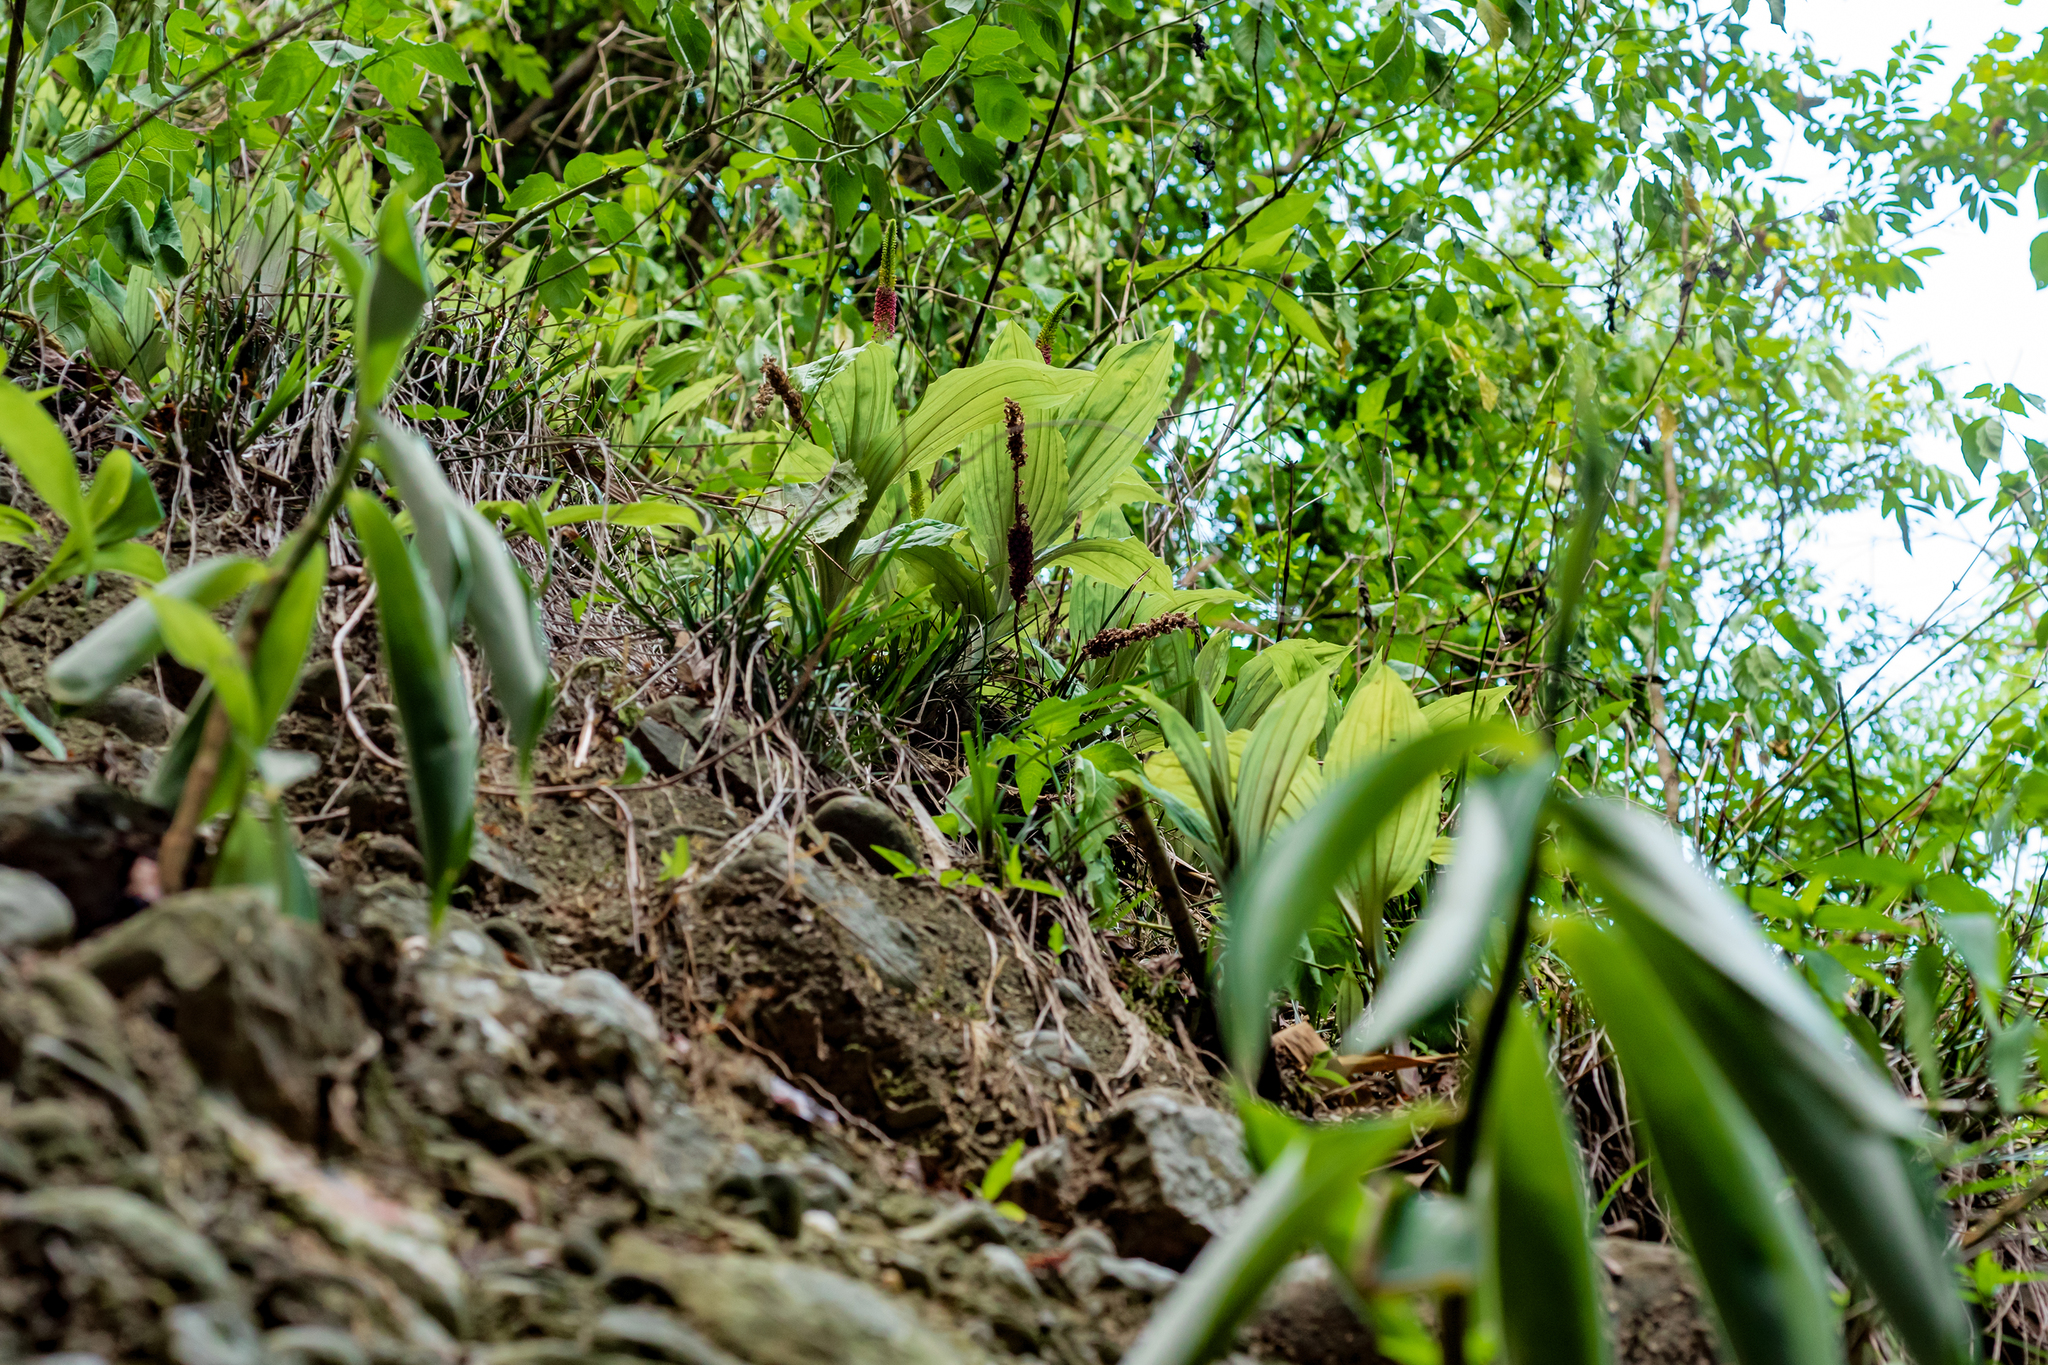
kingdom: Plantae
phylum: Tracheophyta
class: Liliopsida
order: Asparagales
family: Orchidaceae
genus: Dienia
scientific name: Dienia ophrydis
